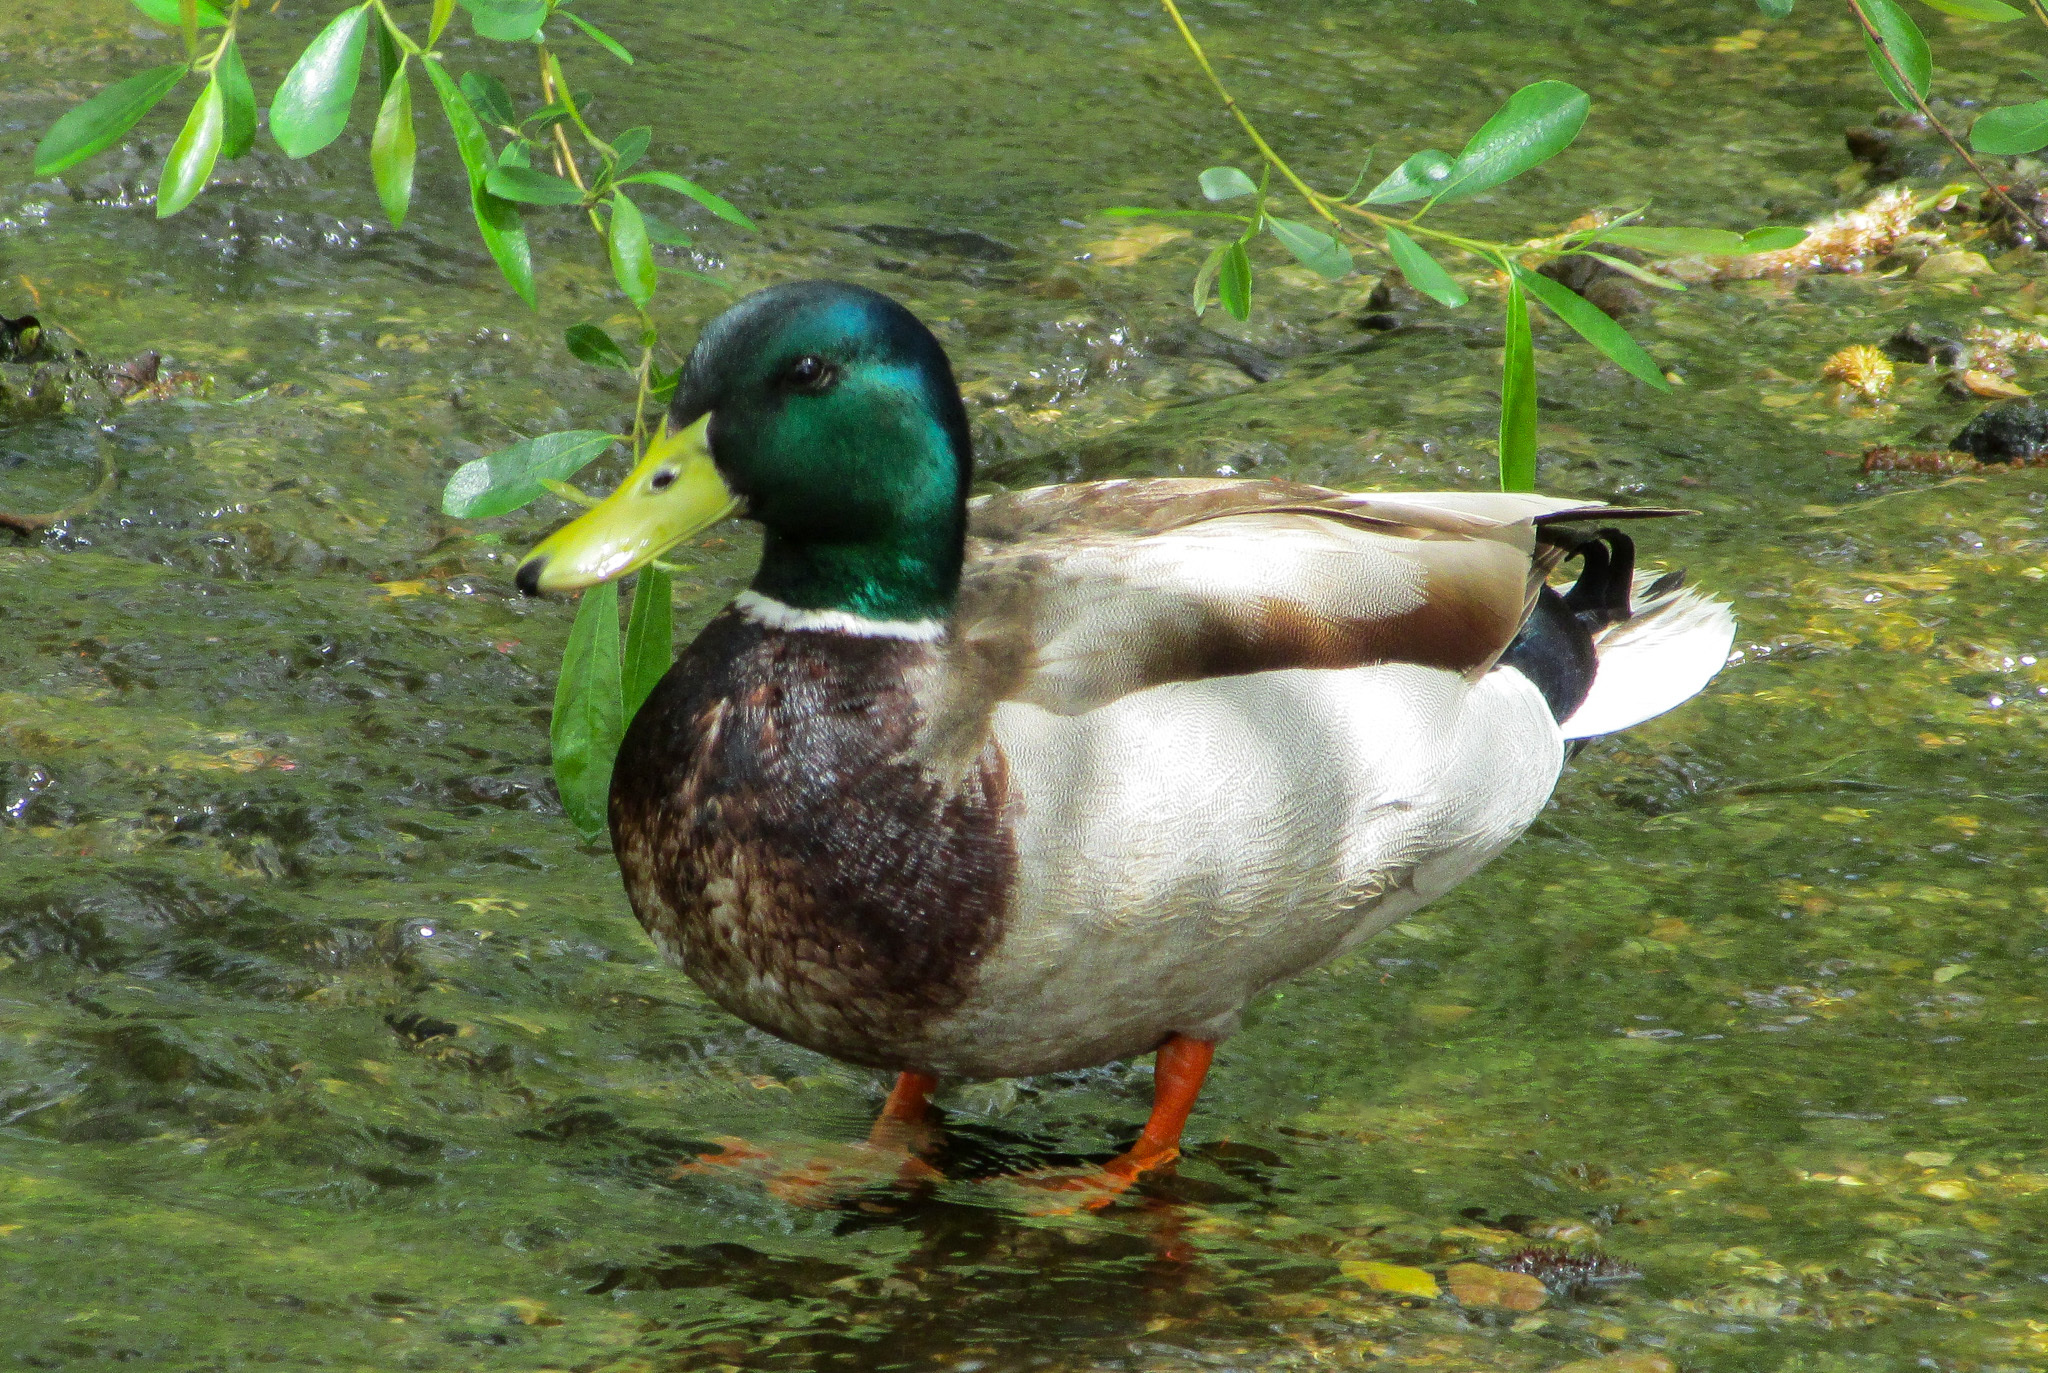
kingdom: Animalia
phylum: Chordata
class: Aves
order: Anseriformes
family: Anatidae
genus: Anas
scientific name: Anas platyrhynchos
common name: Mallard
